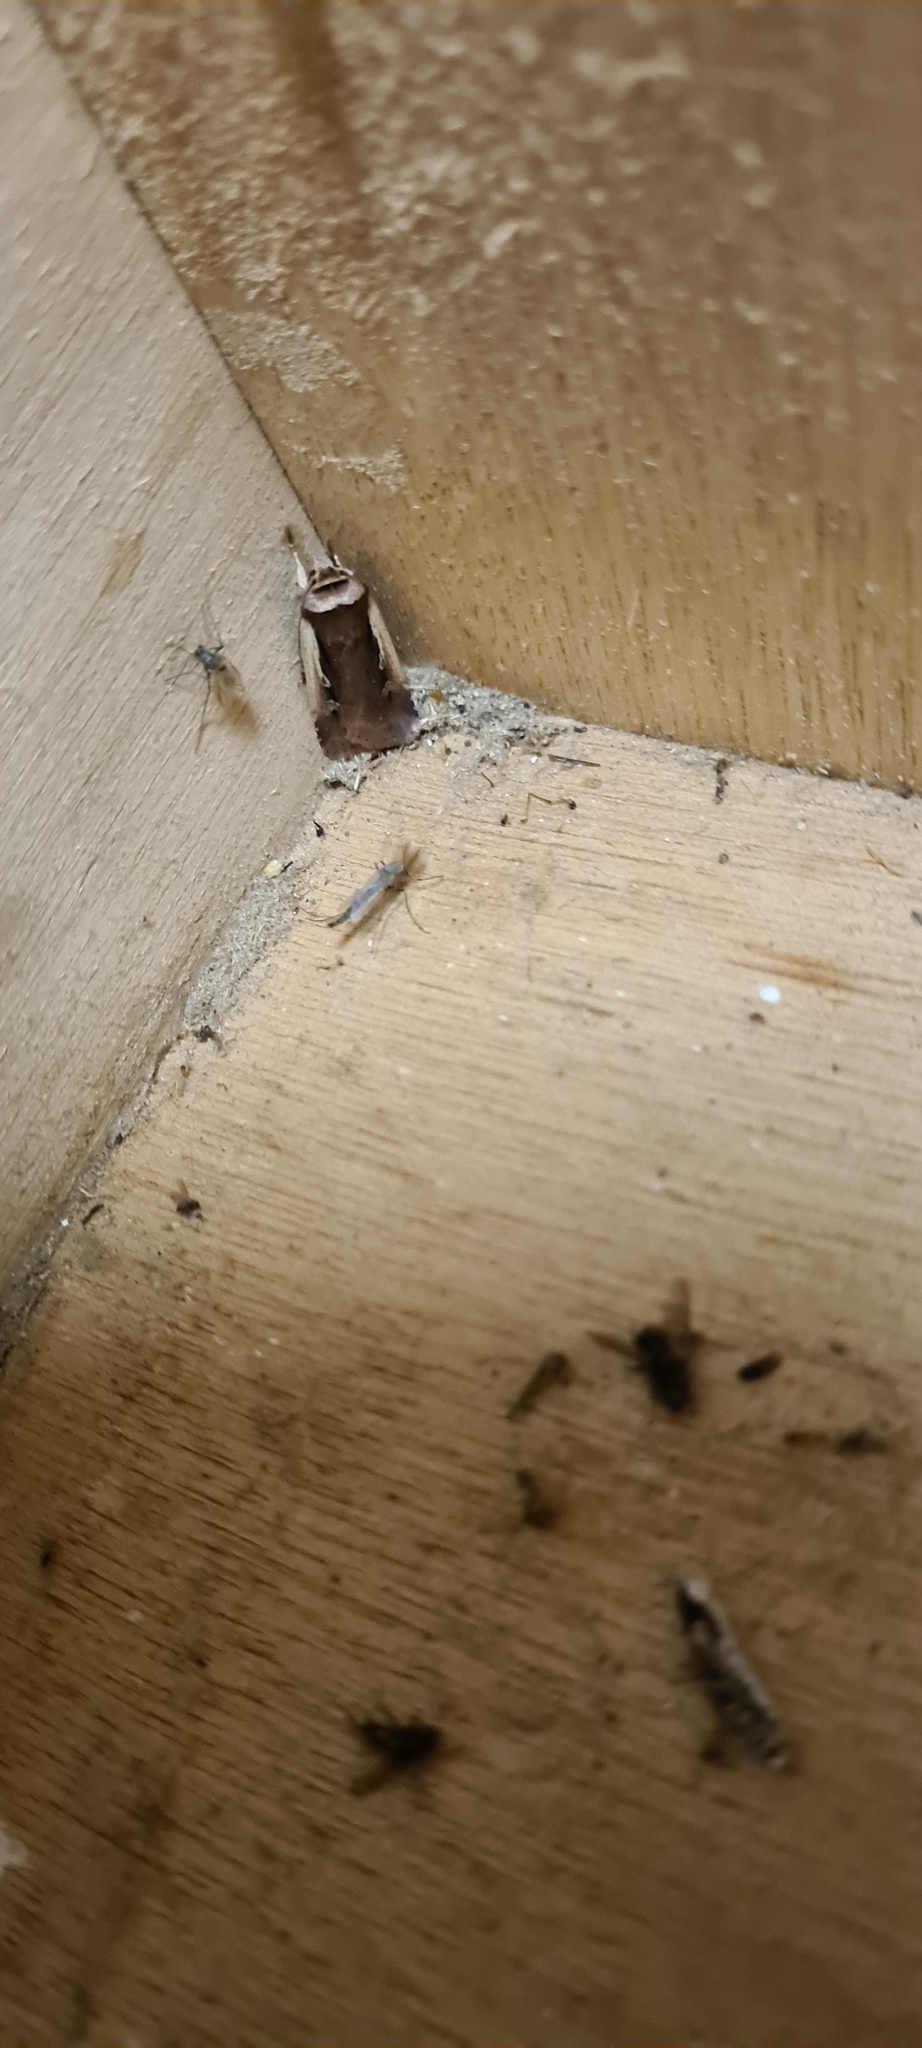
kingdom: Animalia
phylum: Arthropoda
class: Insecta
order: Lepidoptera
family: Noctuidae
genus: Ochropleura
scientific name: Ochropleura plecta
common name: Flame shoulder
